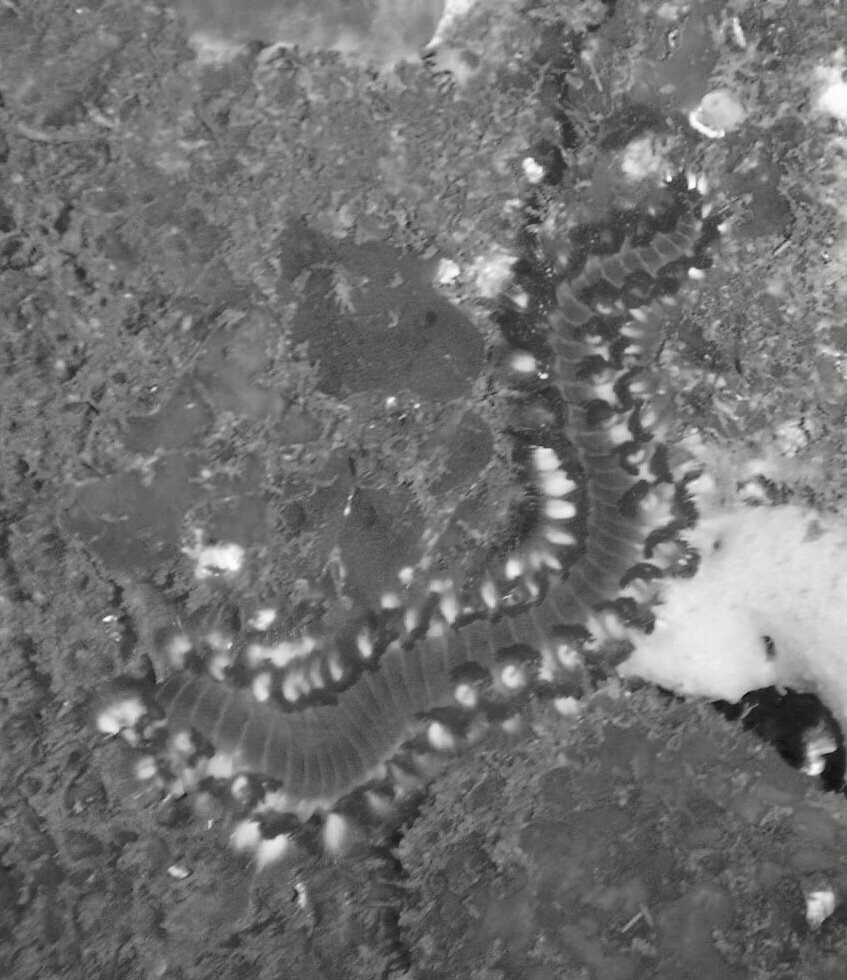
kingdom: Animalia
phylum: Annelida
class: Polychaeta
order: Amphinomida
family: Amphinomidae
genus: Hermodice
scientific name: Hermodice carunculata
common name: Bearded fireworm
